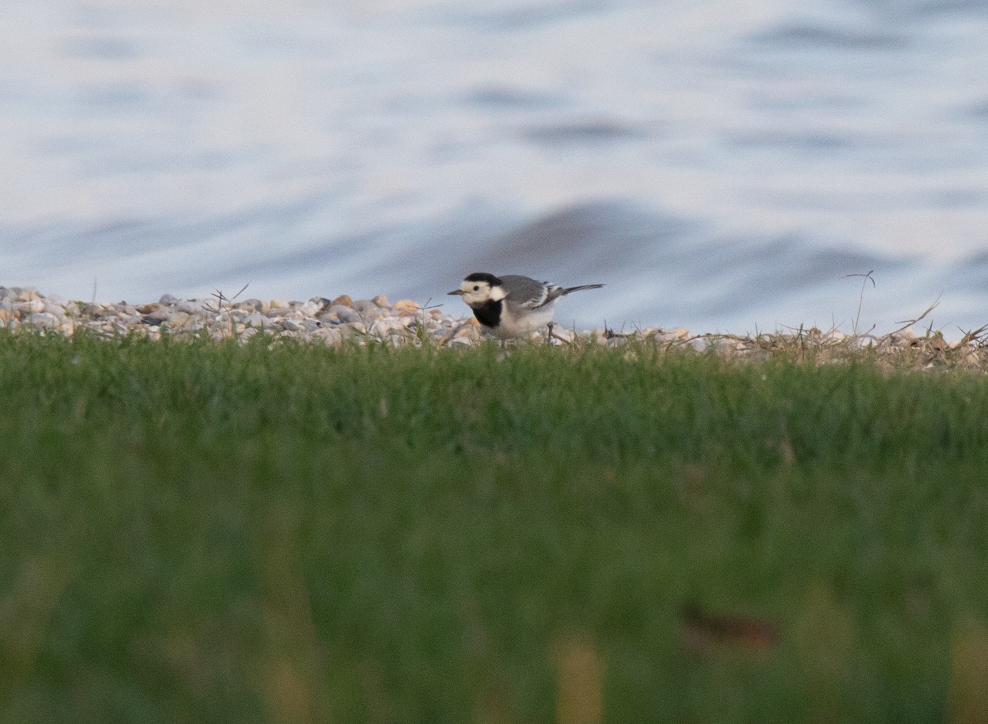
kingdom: Animalia
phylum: Chordata
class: Aves
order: Passeriformes
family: Motacillidae
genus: Motacilla
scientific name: Motacilla alba
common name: White wagtail
